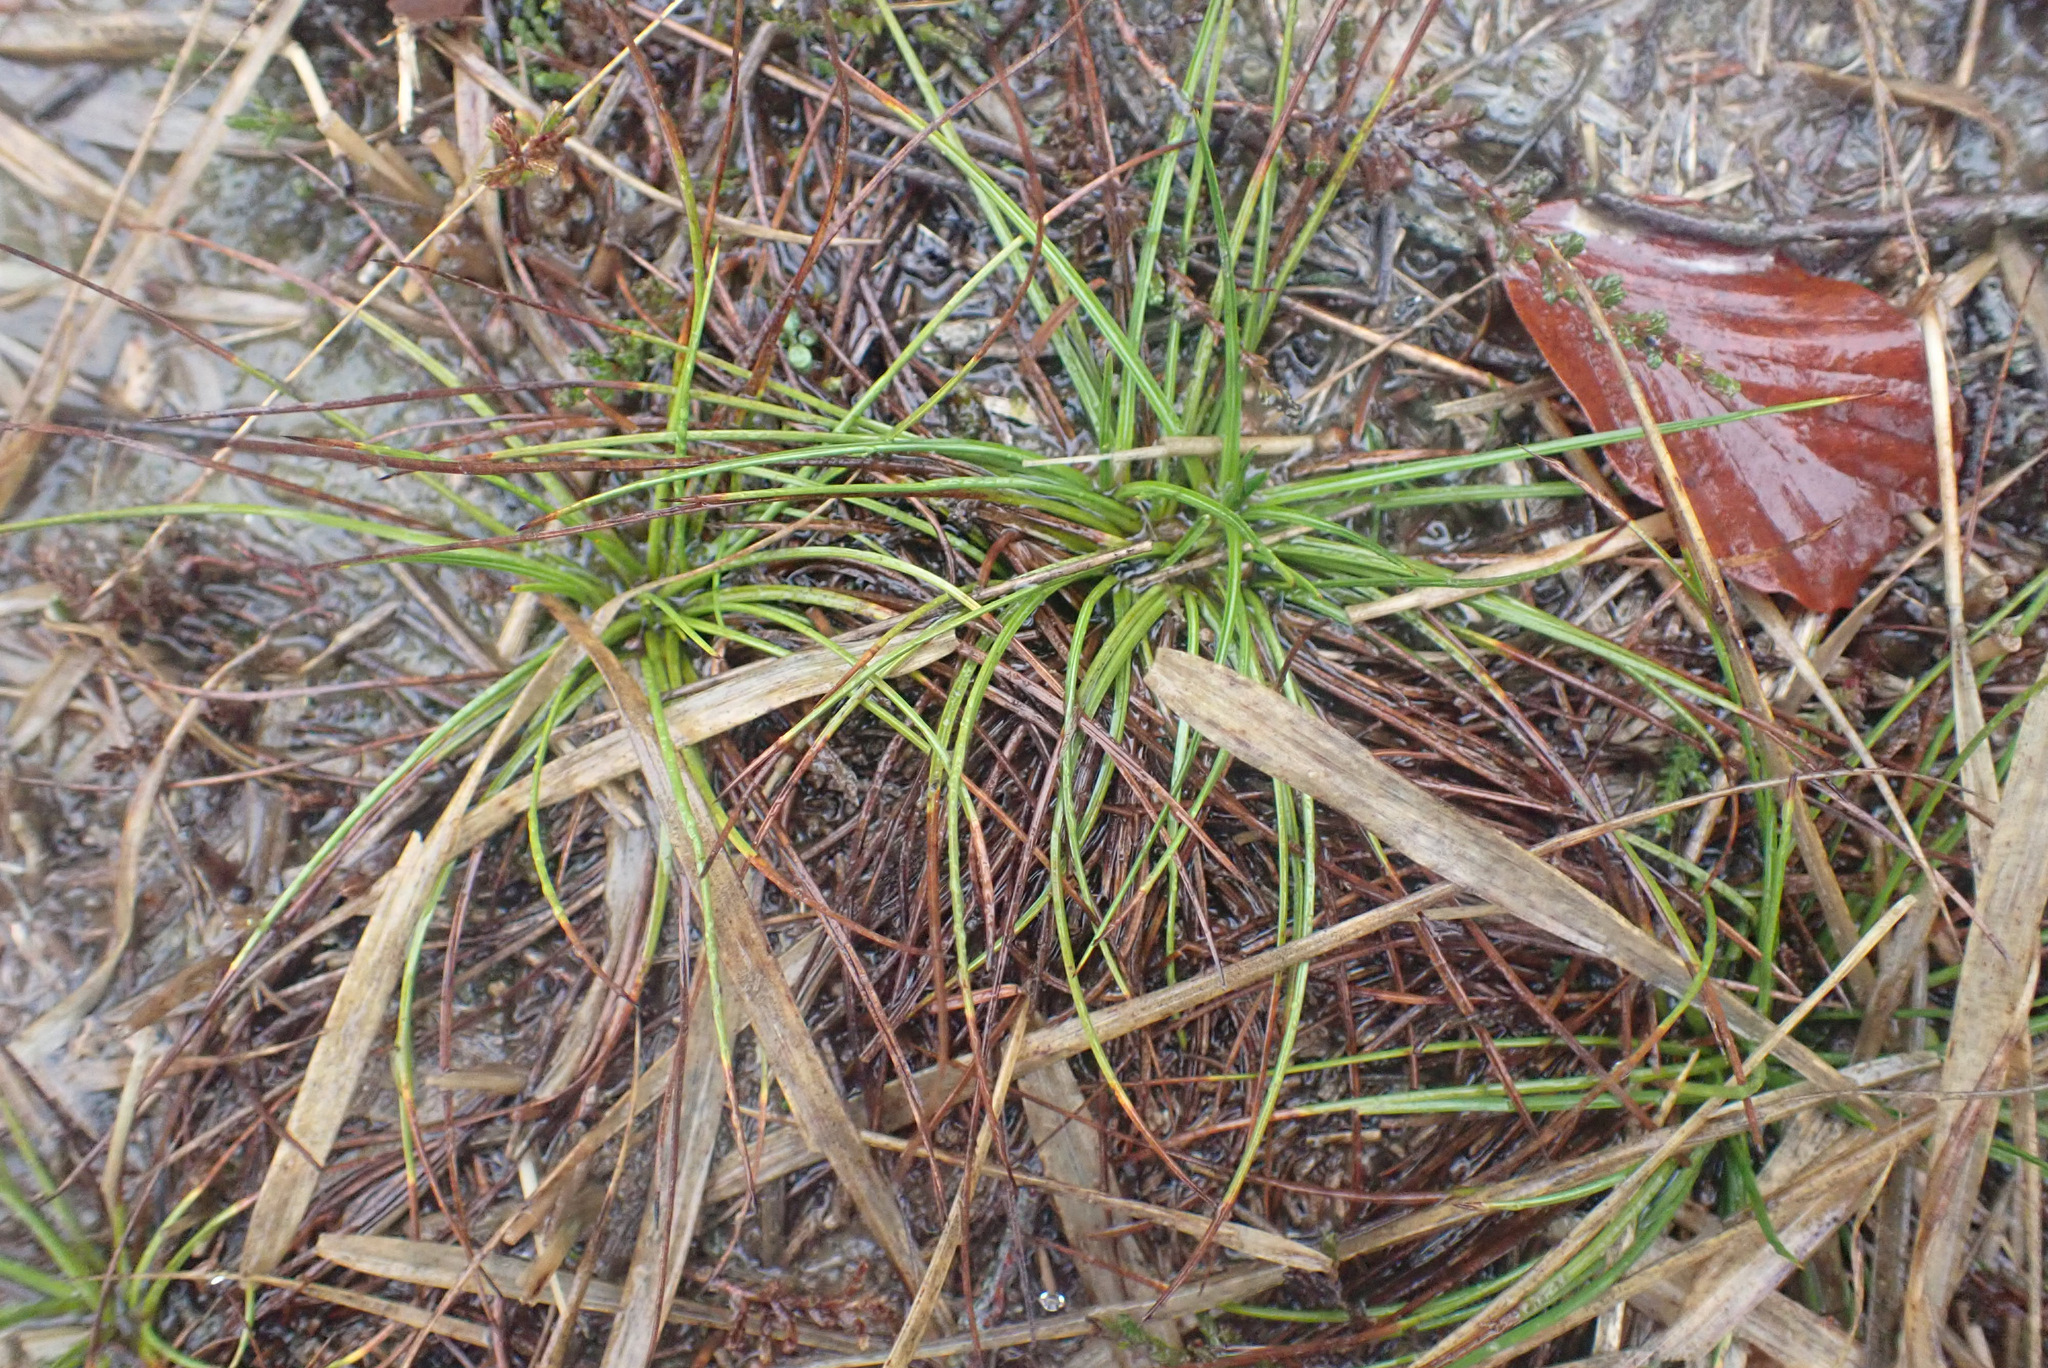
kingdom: Plantae
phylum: Tracheophyta
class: Liliopsida
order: Poales
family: Juncaceae
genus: Juncus
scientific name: Juncus squarrosus
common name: Heath rush
